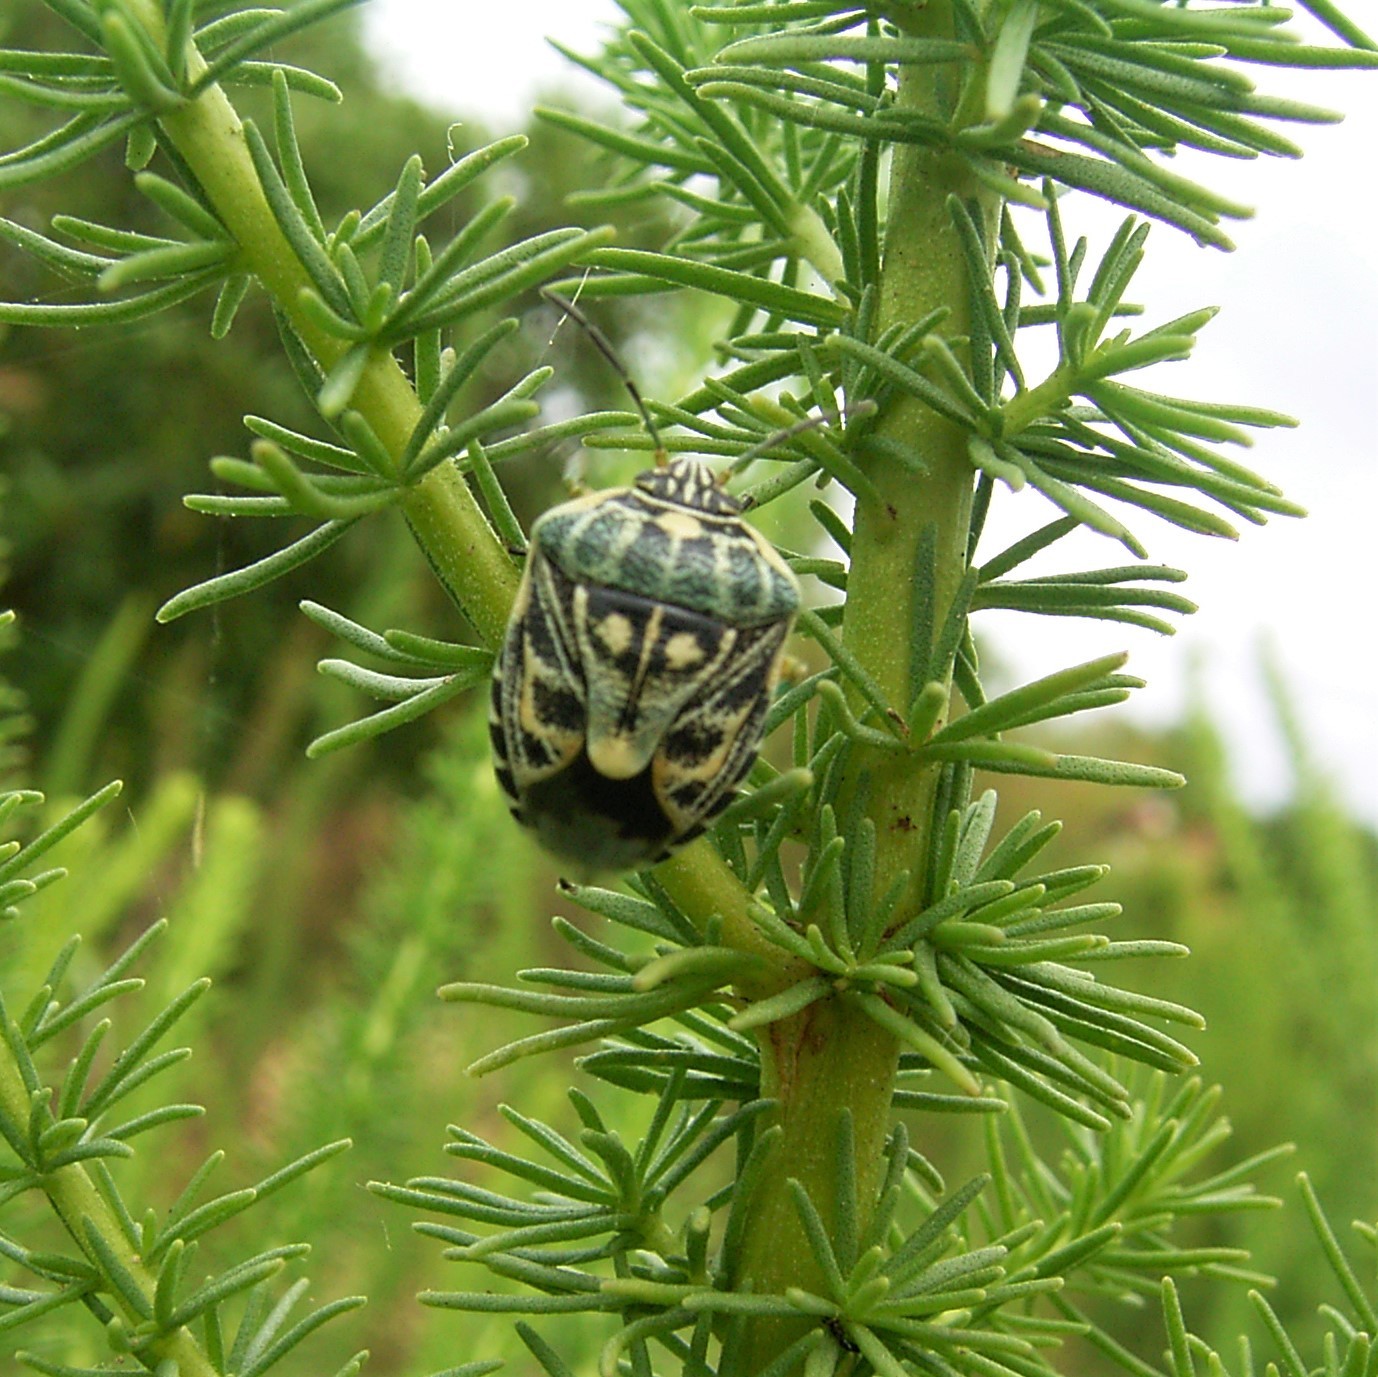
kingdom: Animalia
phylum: Arthropoda
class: Insecta
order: Hemiptera
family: Pentatomidae
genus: Antestiopsis
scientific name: Antestiopsis thunbergii
